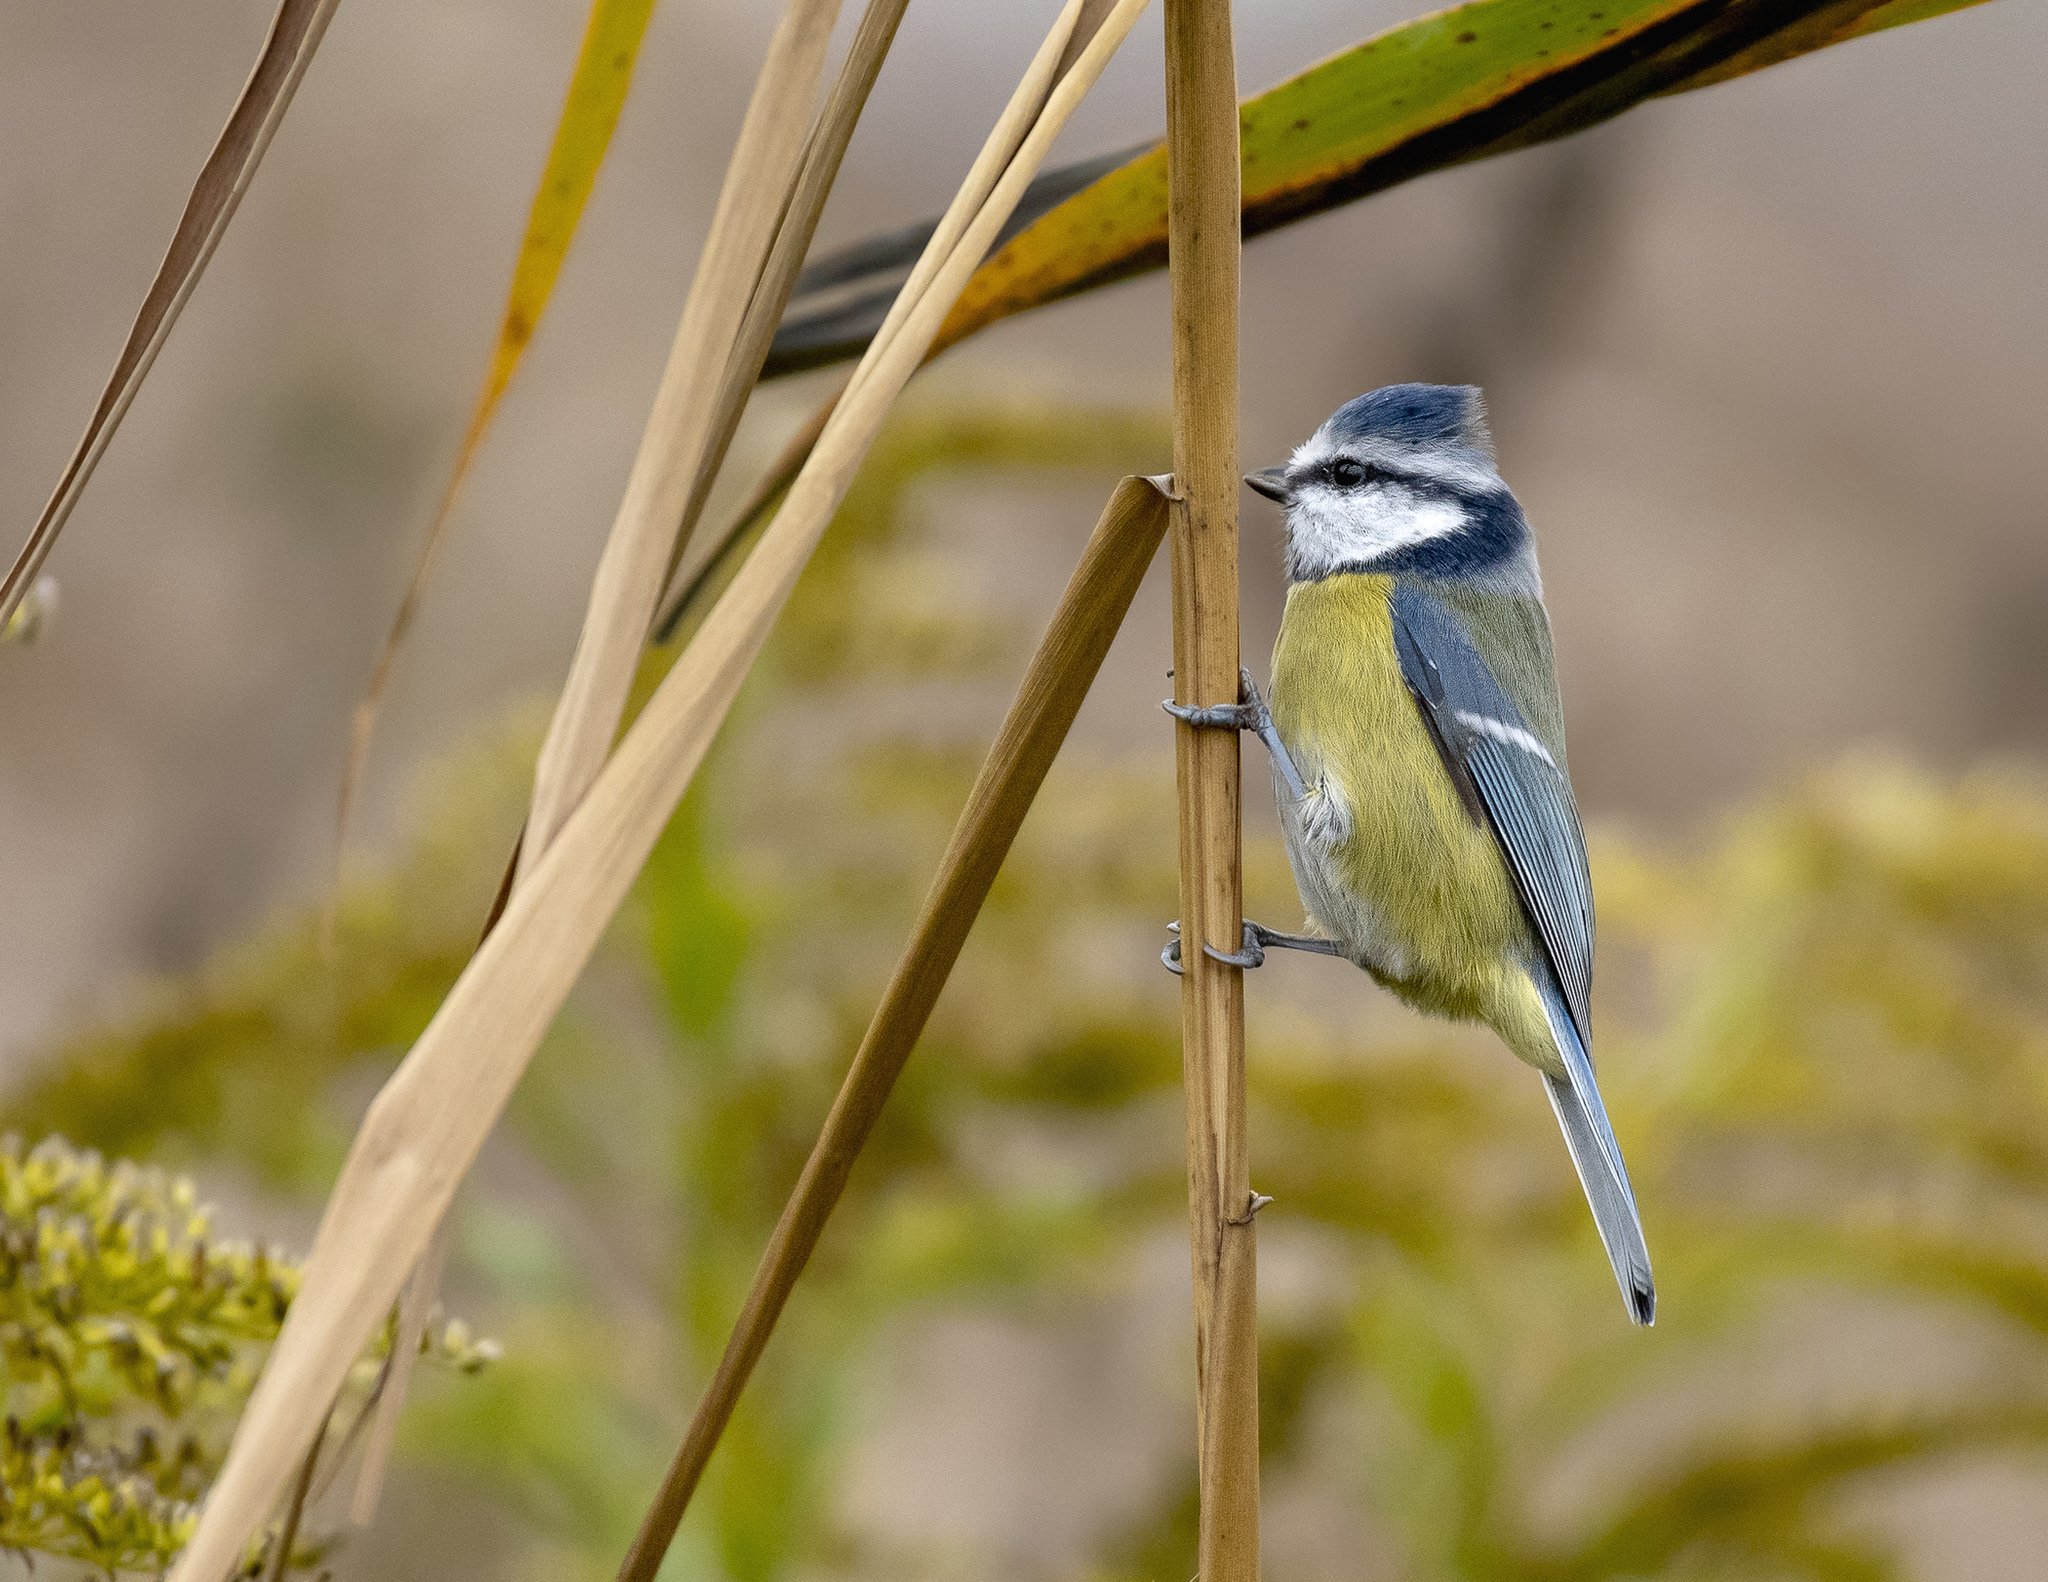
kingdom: Animalia
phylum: Chordata
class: Aves
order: Passeriformes
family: Paridae
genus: Cyanistes
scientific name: Cyanistes caeruleus
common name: Eurasian blue tit
